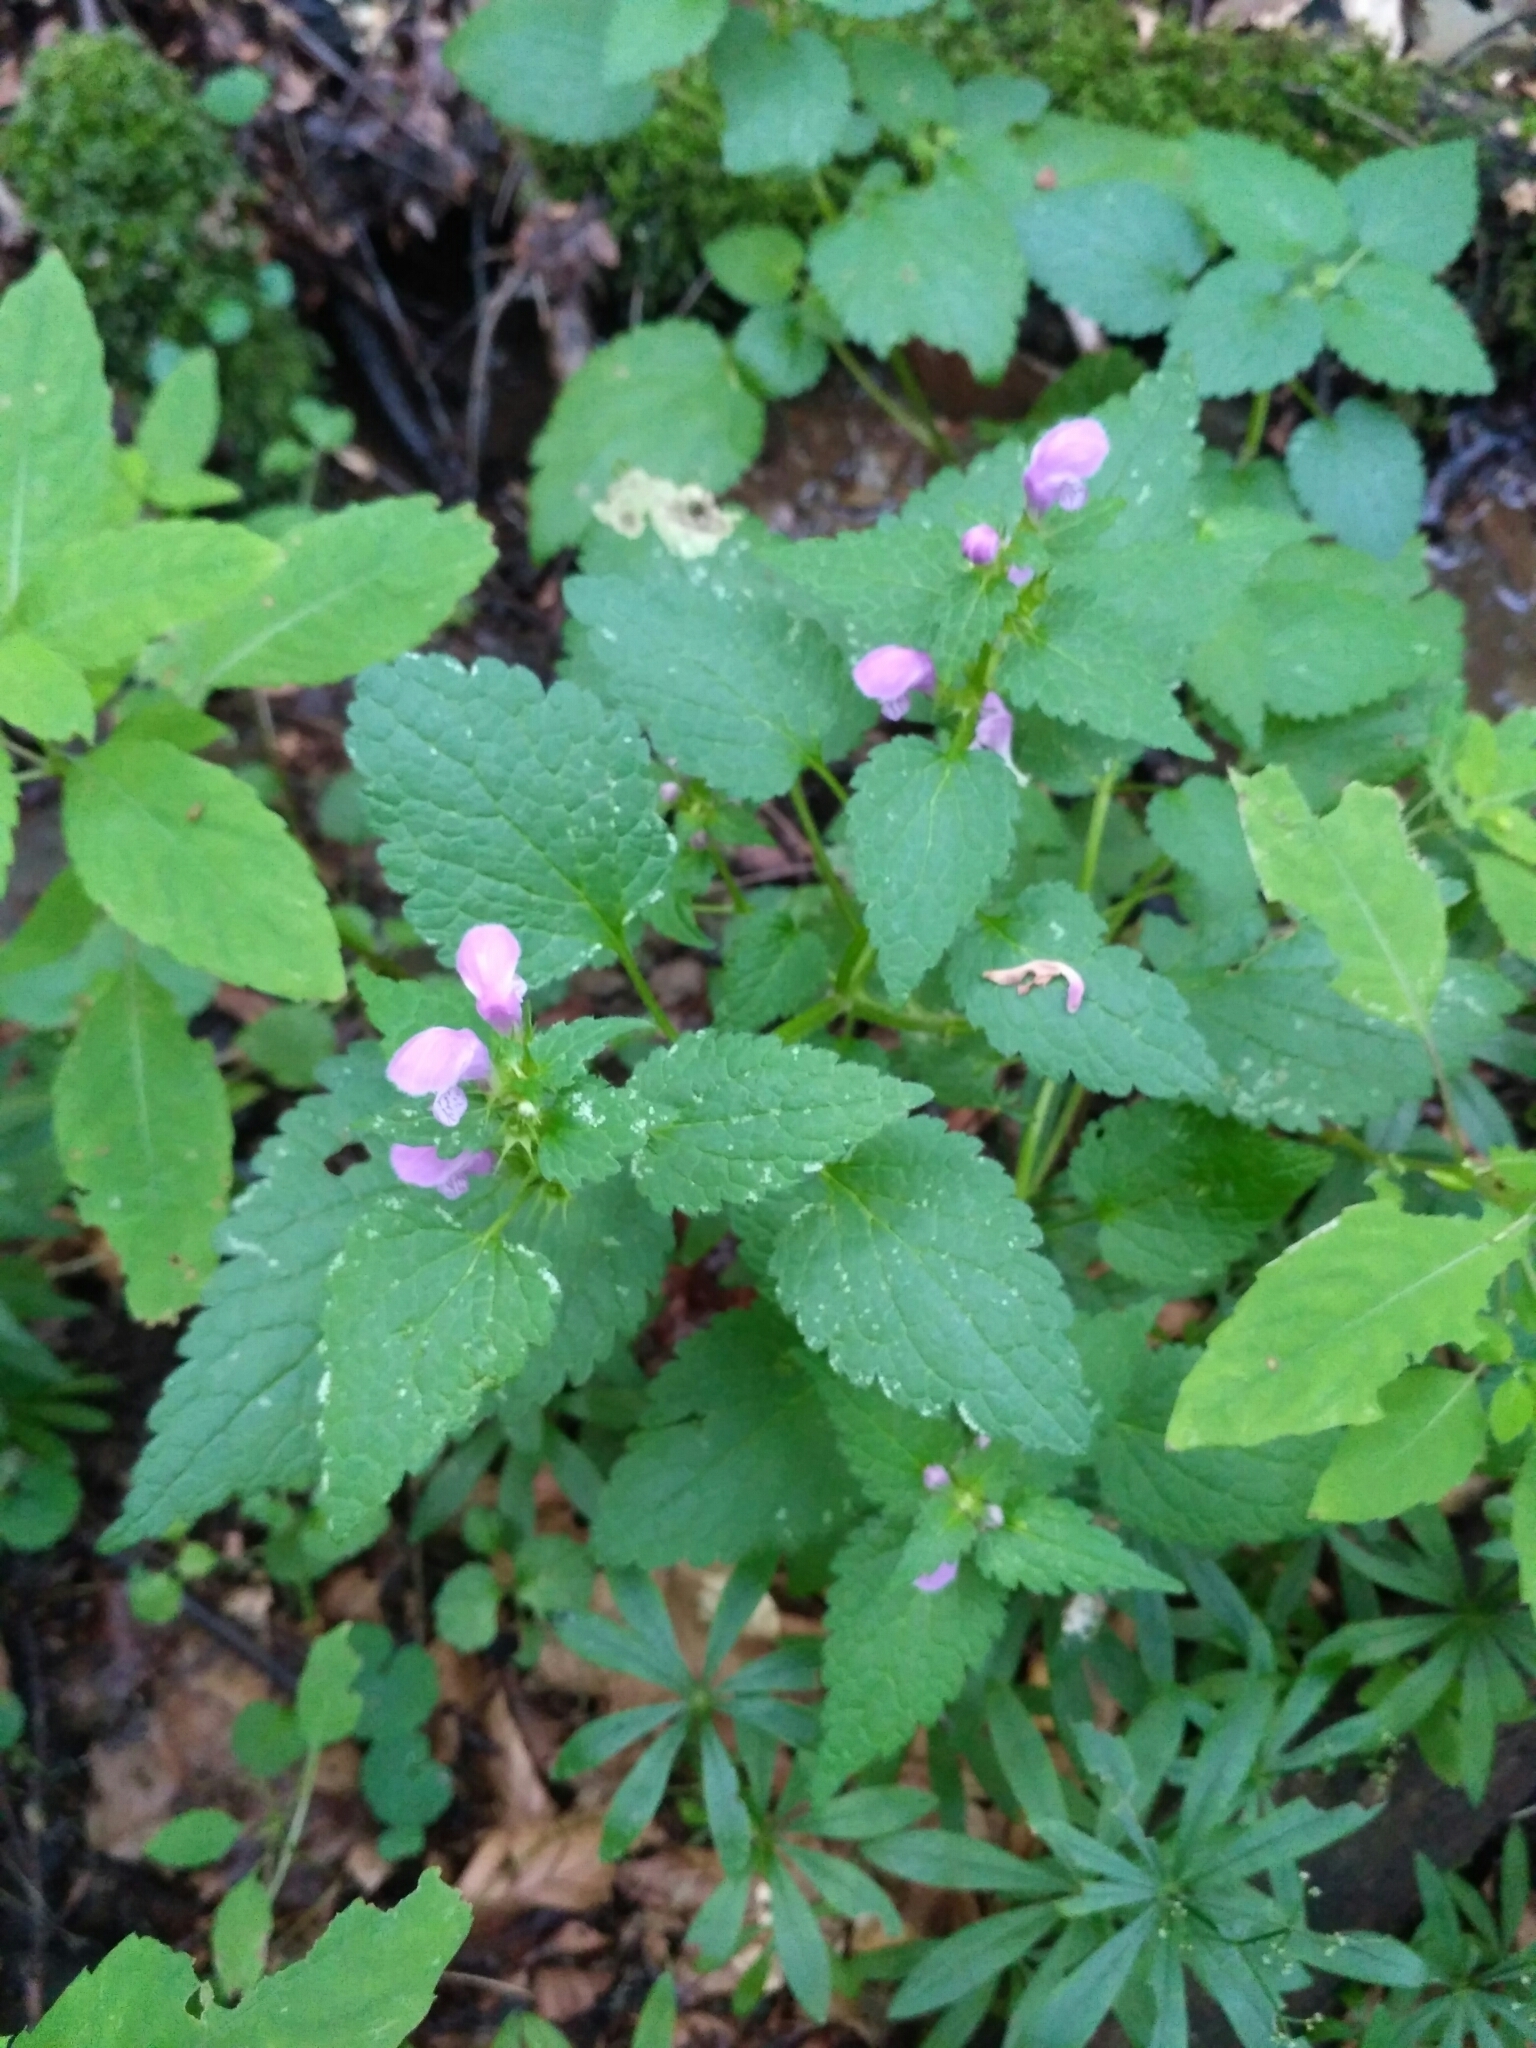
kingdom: Plantae
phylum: Tracheophyta
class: Magnoliopsida
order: Lamiales
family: Lamiaceae
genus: Lamium
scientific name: Lamium maculatum
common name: Spotted dead-nettle
